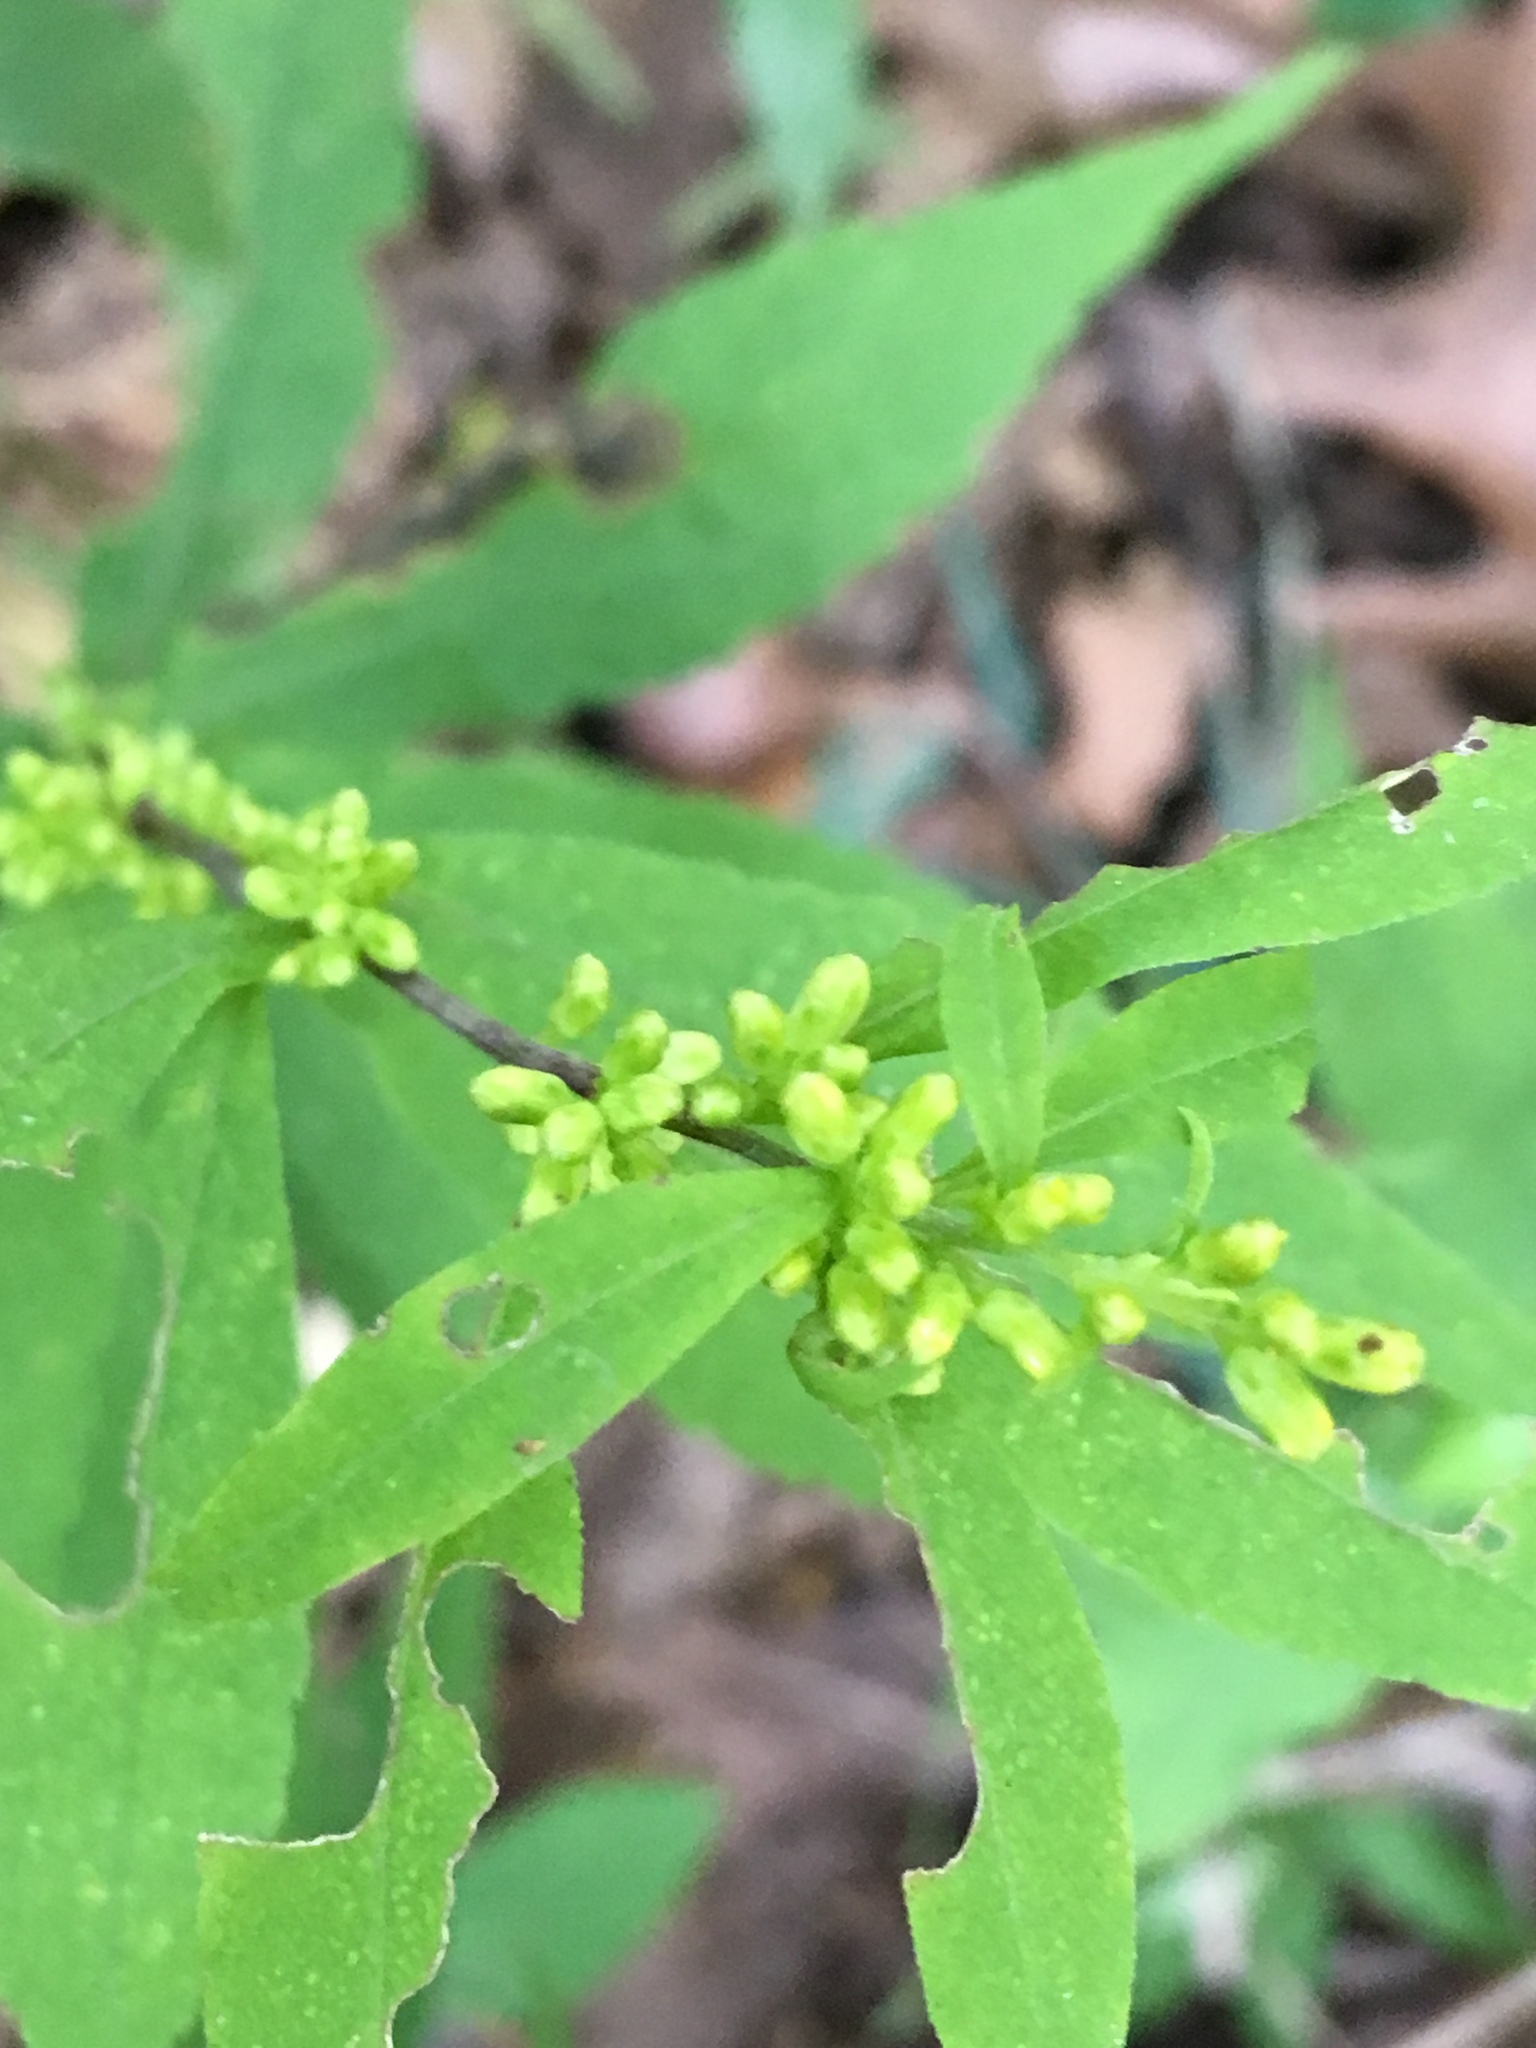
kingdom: Plantae
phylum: Tracheophyta
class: Magnoliopsida
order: Asterales
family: Asteraceae
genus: Solidago
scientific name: Solidago caesia
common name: Woodland goldenrod
